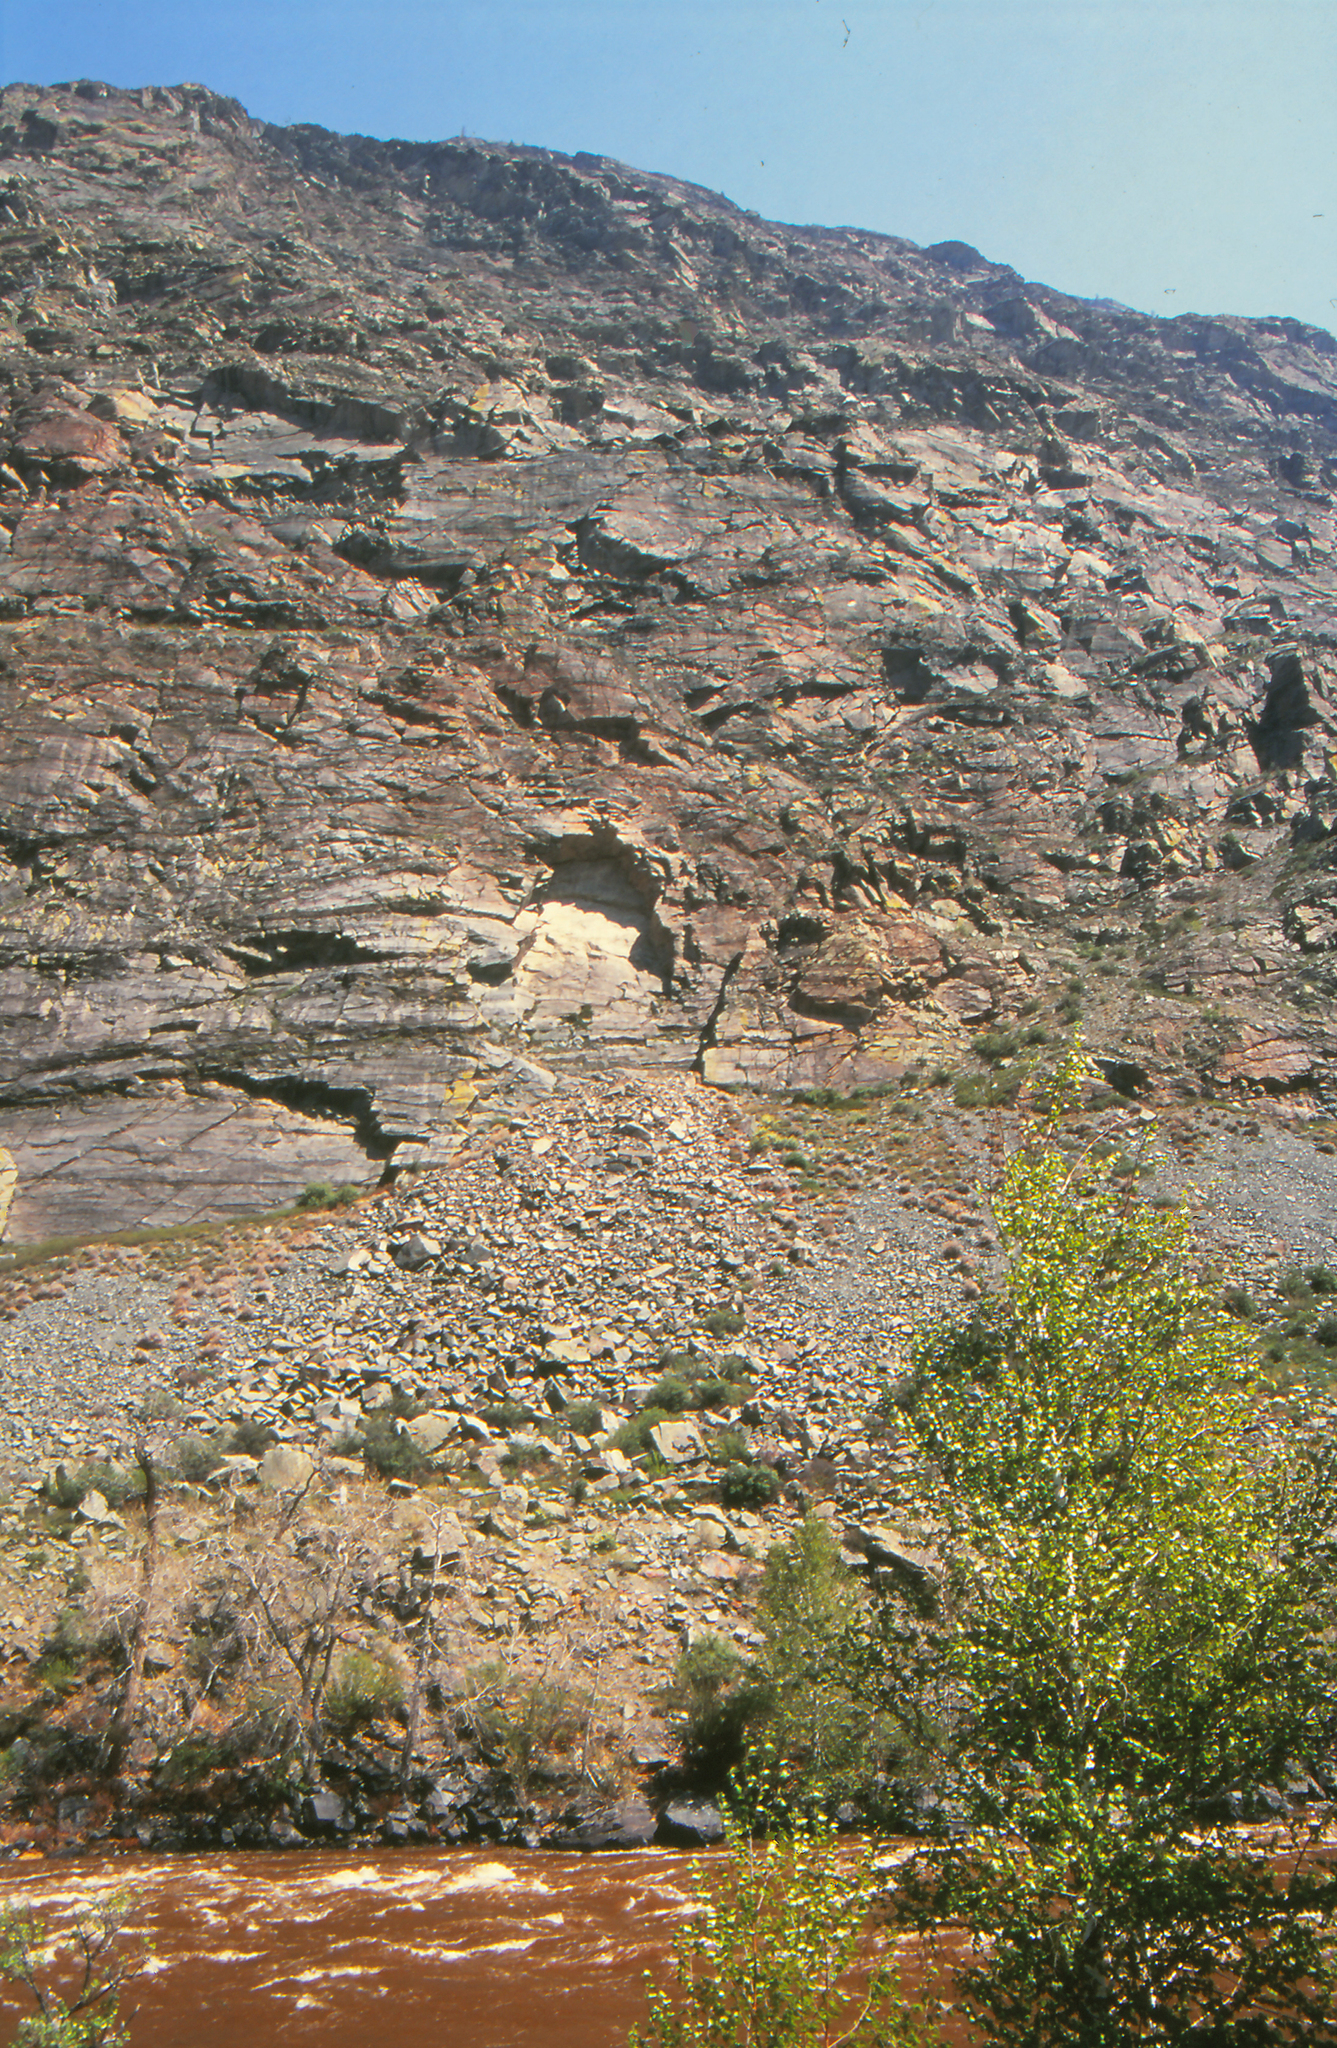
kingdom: Plantae
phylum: Tracheophyta
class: Magnoliopsida
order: Malpighiales
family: Salicaceae
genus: Populus
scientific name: Populus laurifolia
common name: Laurel-leaf poplar
